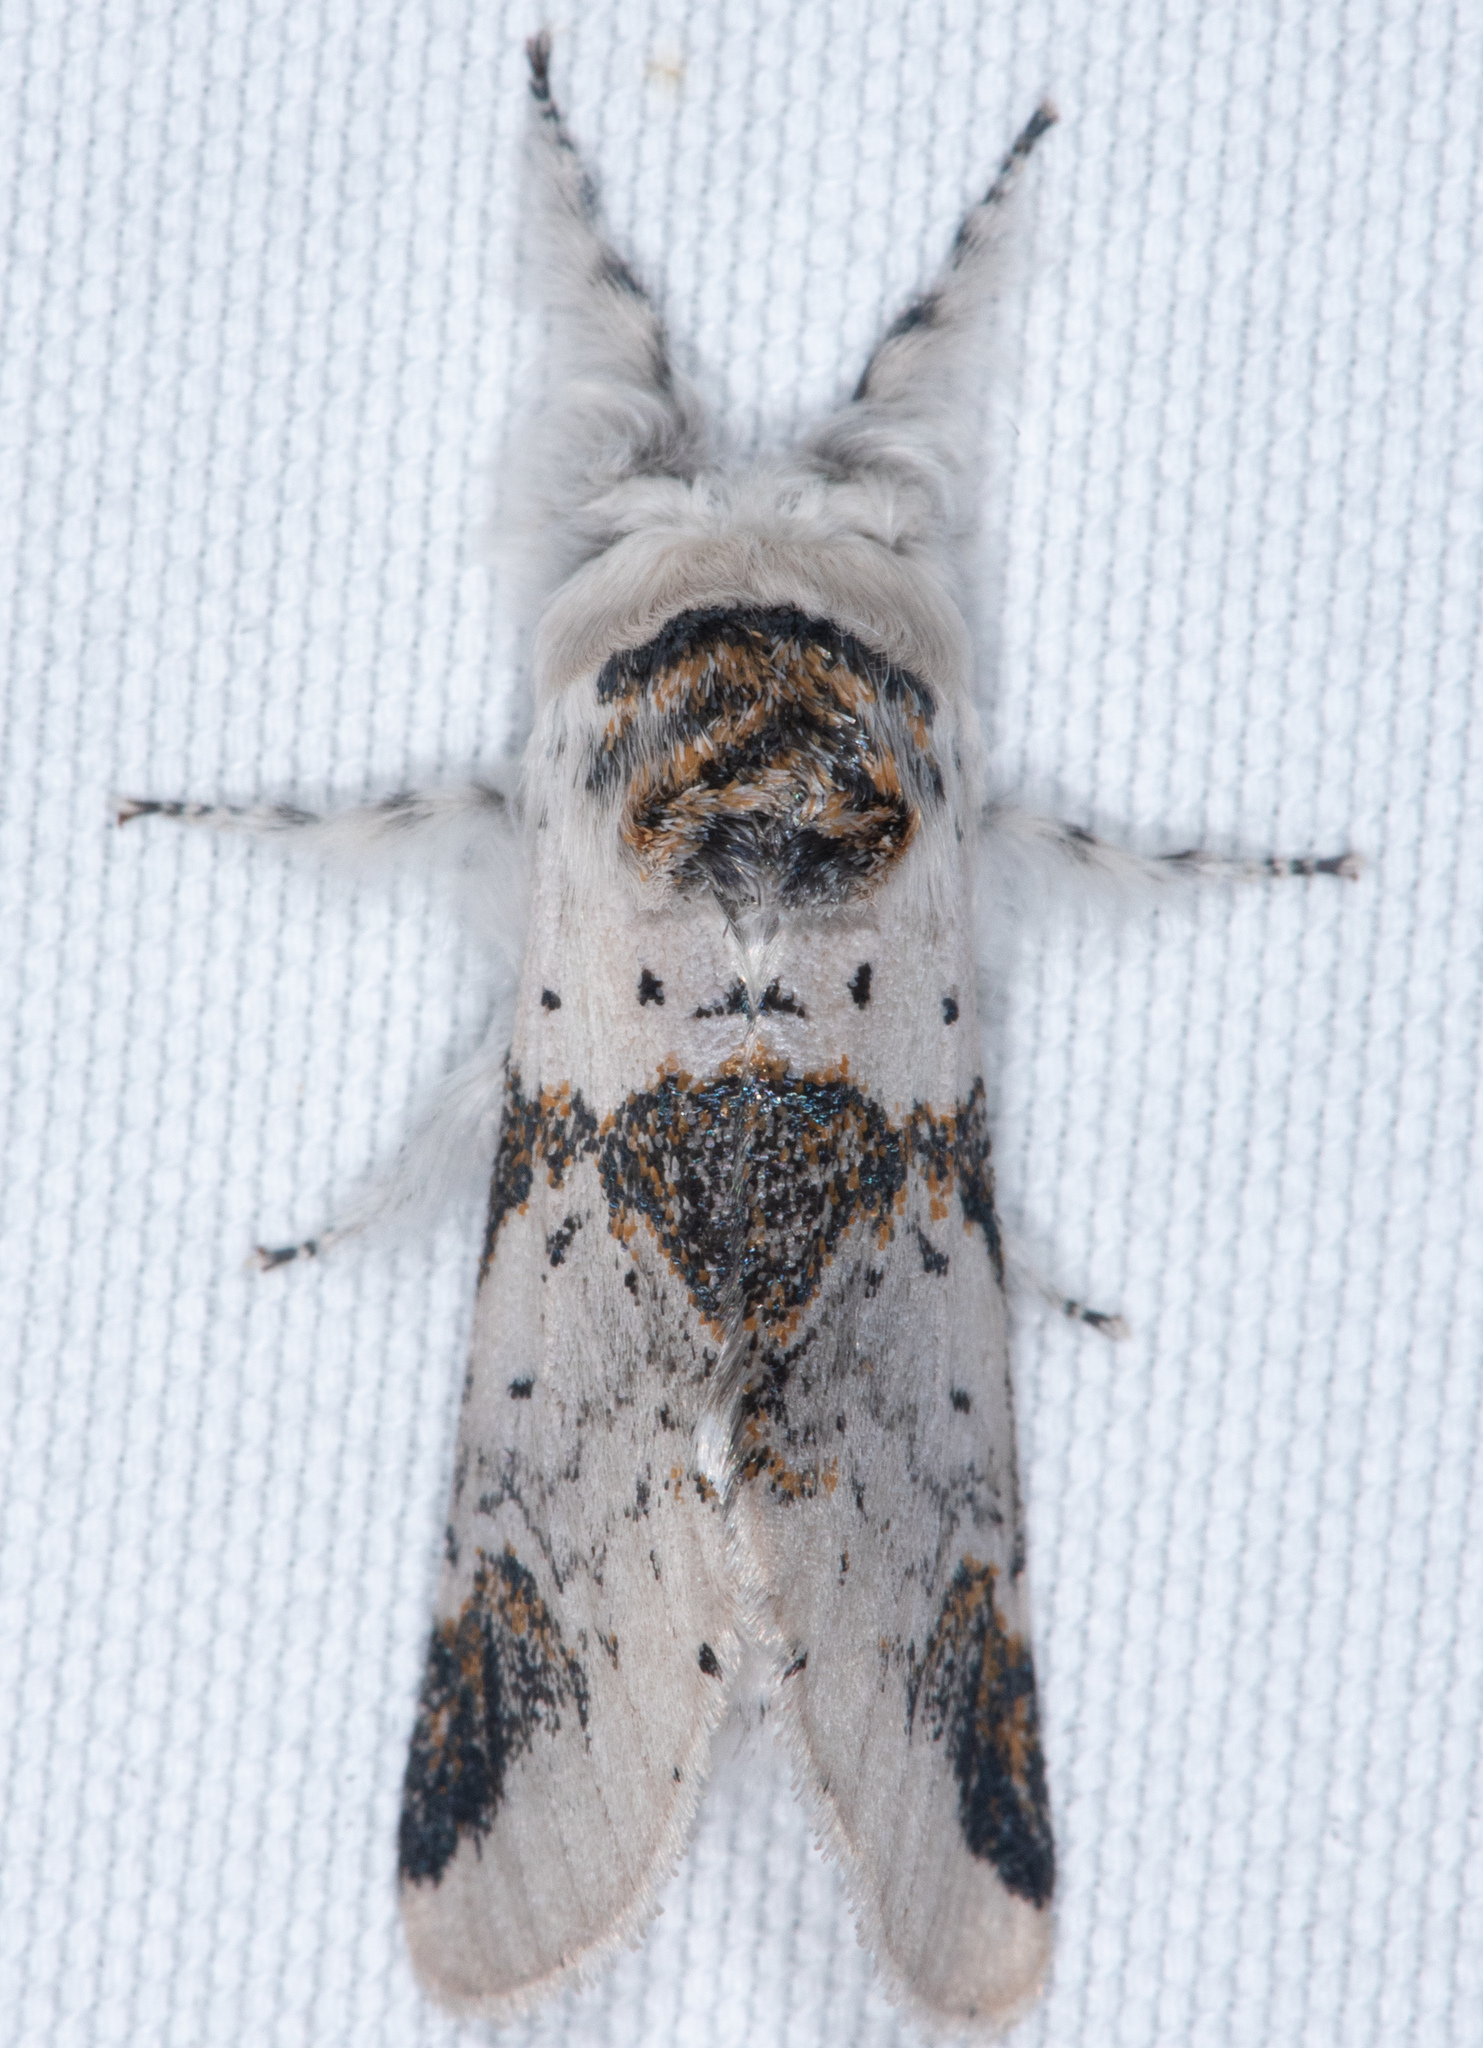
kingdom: Animalia
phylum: Arthropoda
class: Insecta
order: Lepidoptera
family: Notodontidae
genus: Furcula
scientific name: Furcula scolopendrina
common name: Zigzag furcula moth
